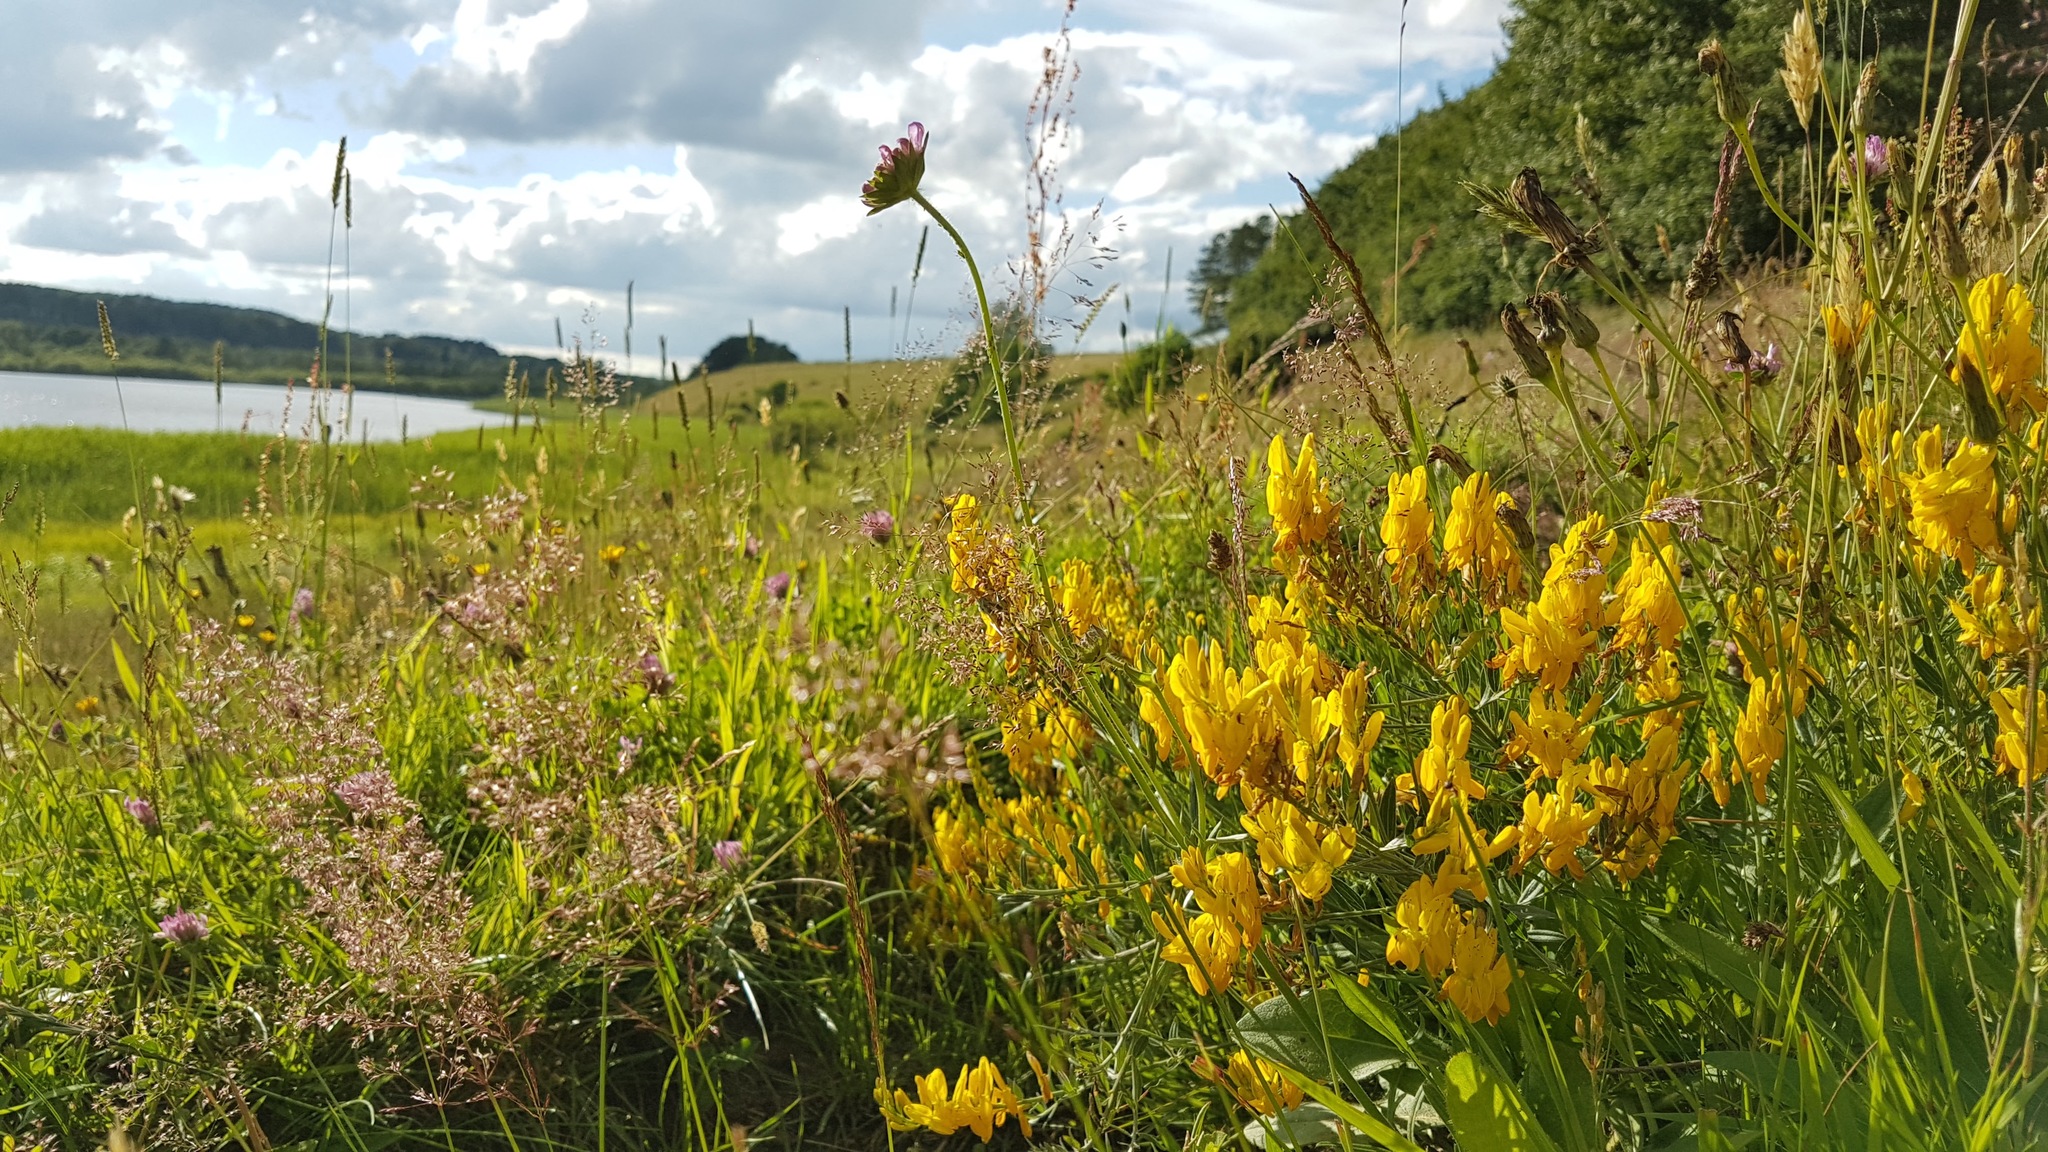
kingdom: Plantae
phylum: Tracheophyta
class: Magnoliopsida
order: Fabales
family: Fabaceae
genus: Genista
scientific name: Genista tinctoria
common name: Dyer's greenweed
